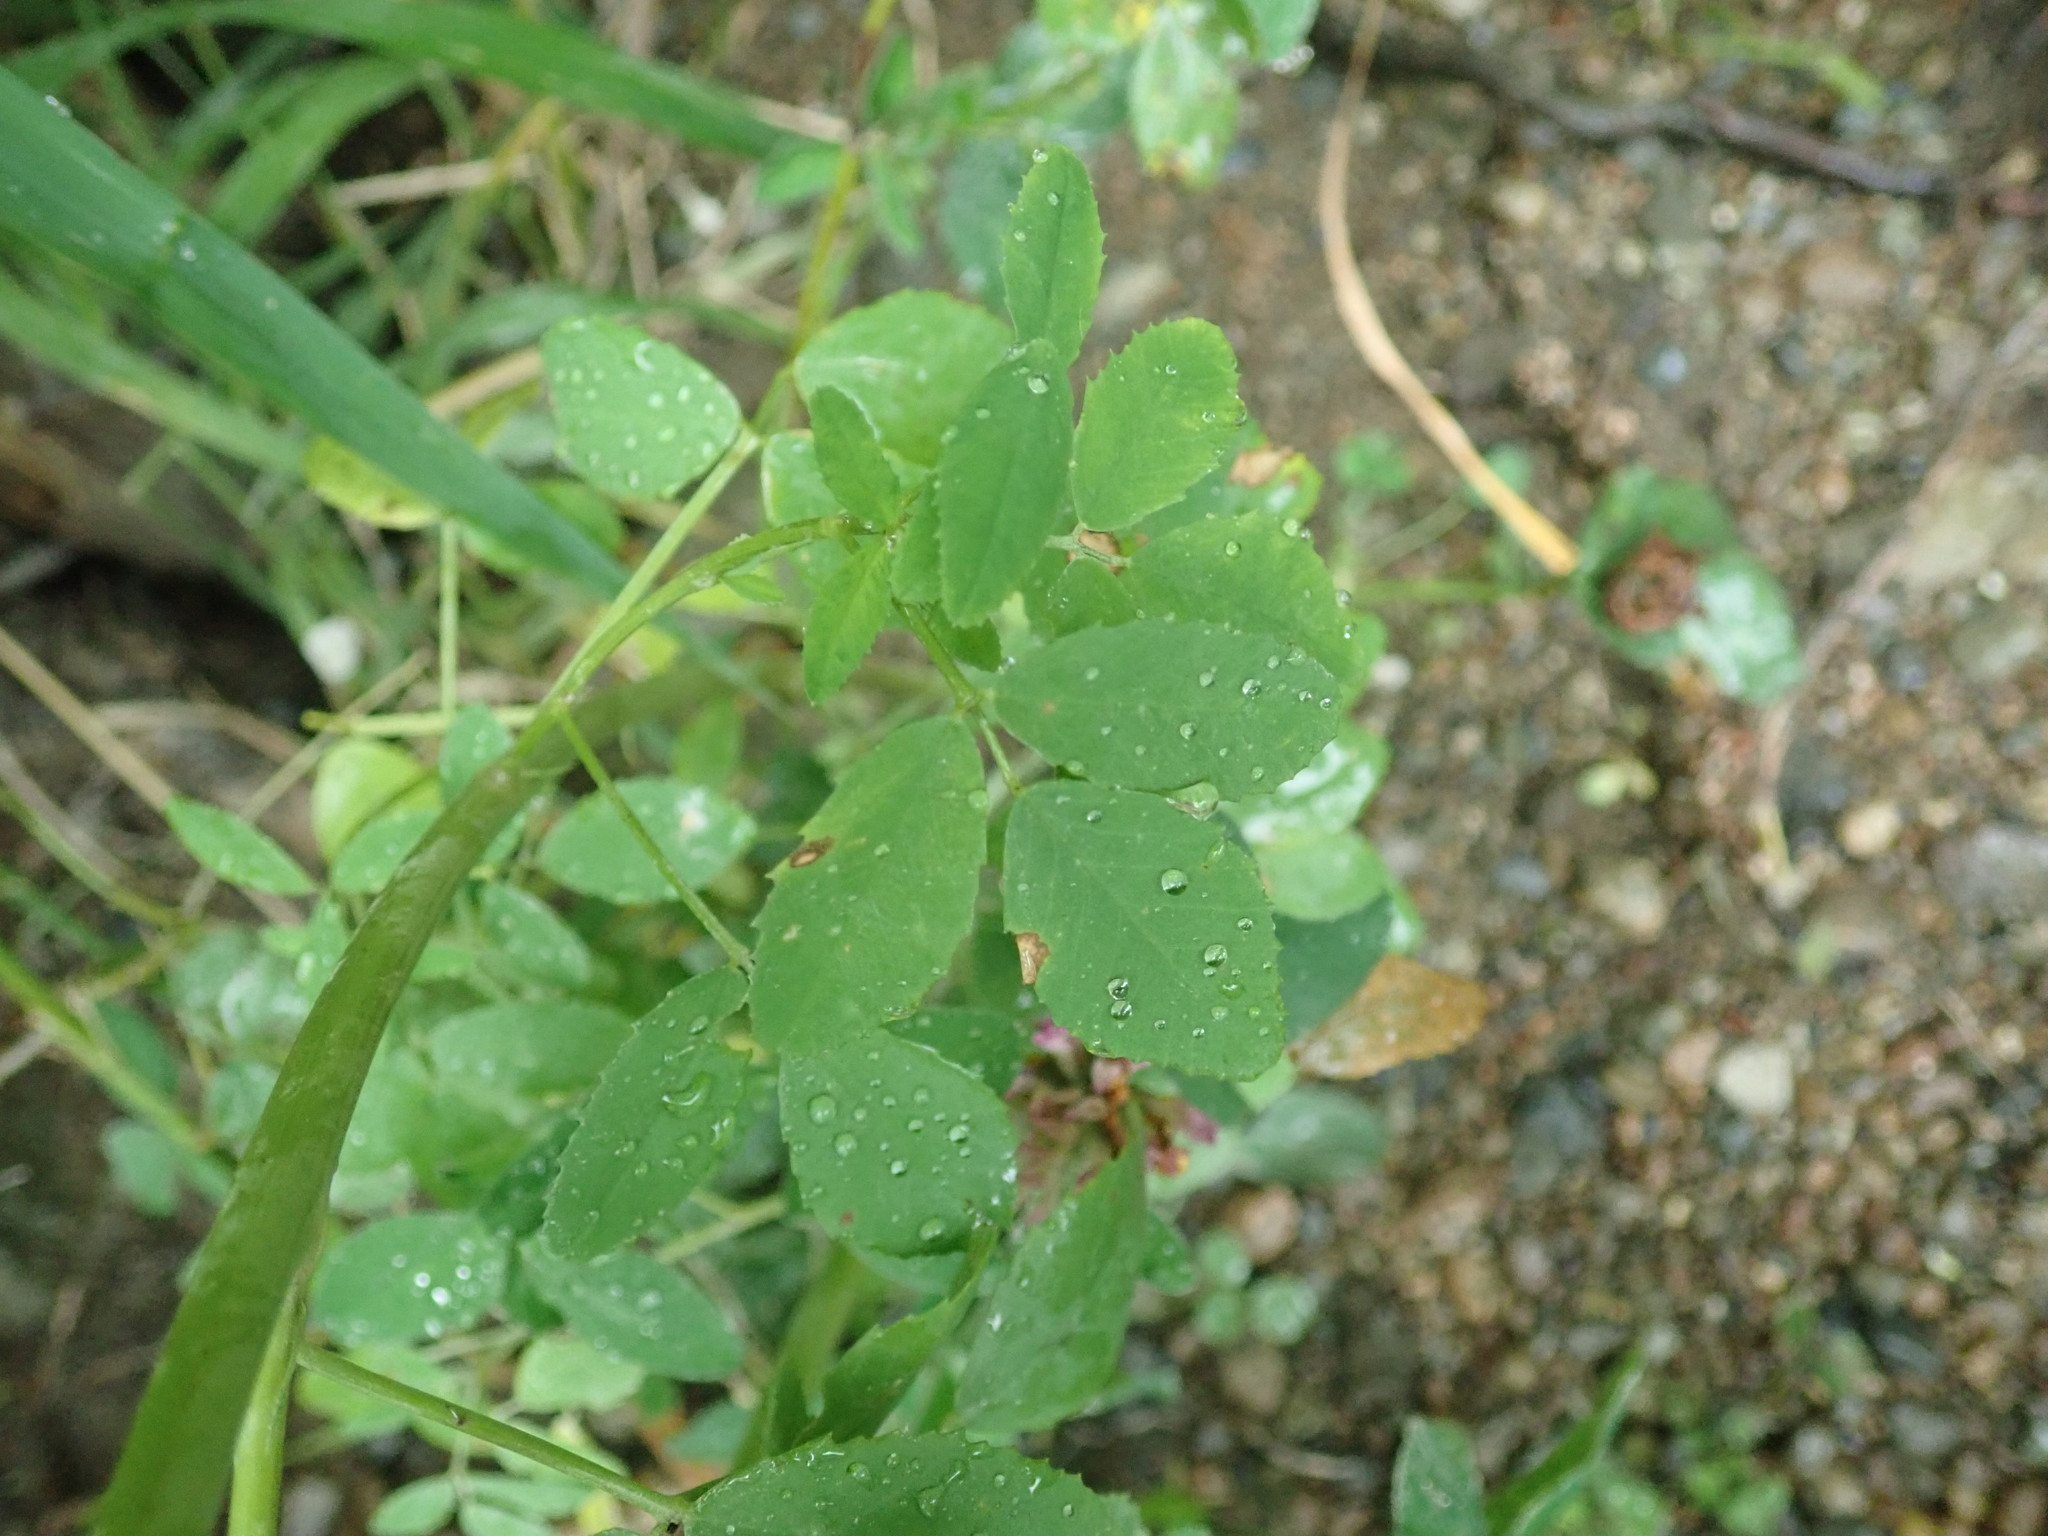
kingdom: Plantae
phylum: Tracheophyta
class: Magnoliopsida
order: Fabales
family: Fabaceae
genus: Melilotus
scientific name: Melilotus albus
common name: White melilot
